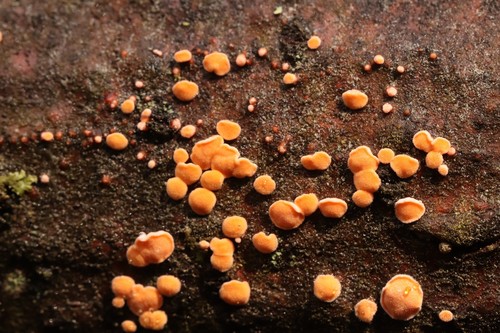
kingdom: Fungi
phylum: Basidiomycota
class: Agaricomycetes
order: Russulales
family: Stereaceae
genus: Aleurodiscus
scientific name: Aleurodiscus amorphus
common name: Orange discus
